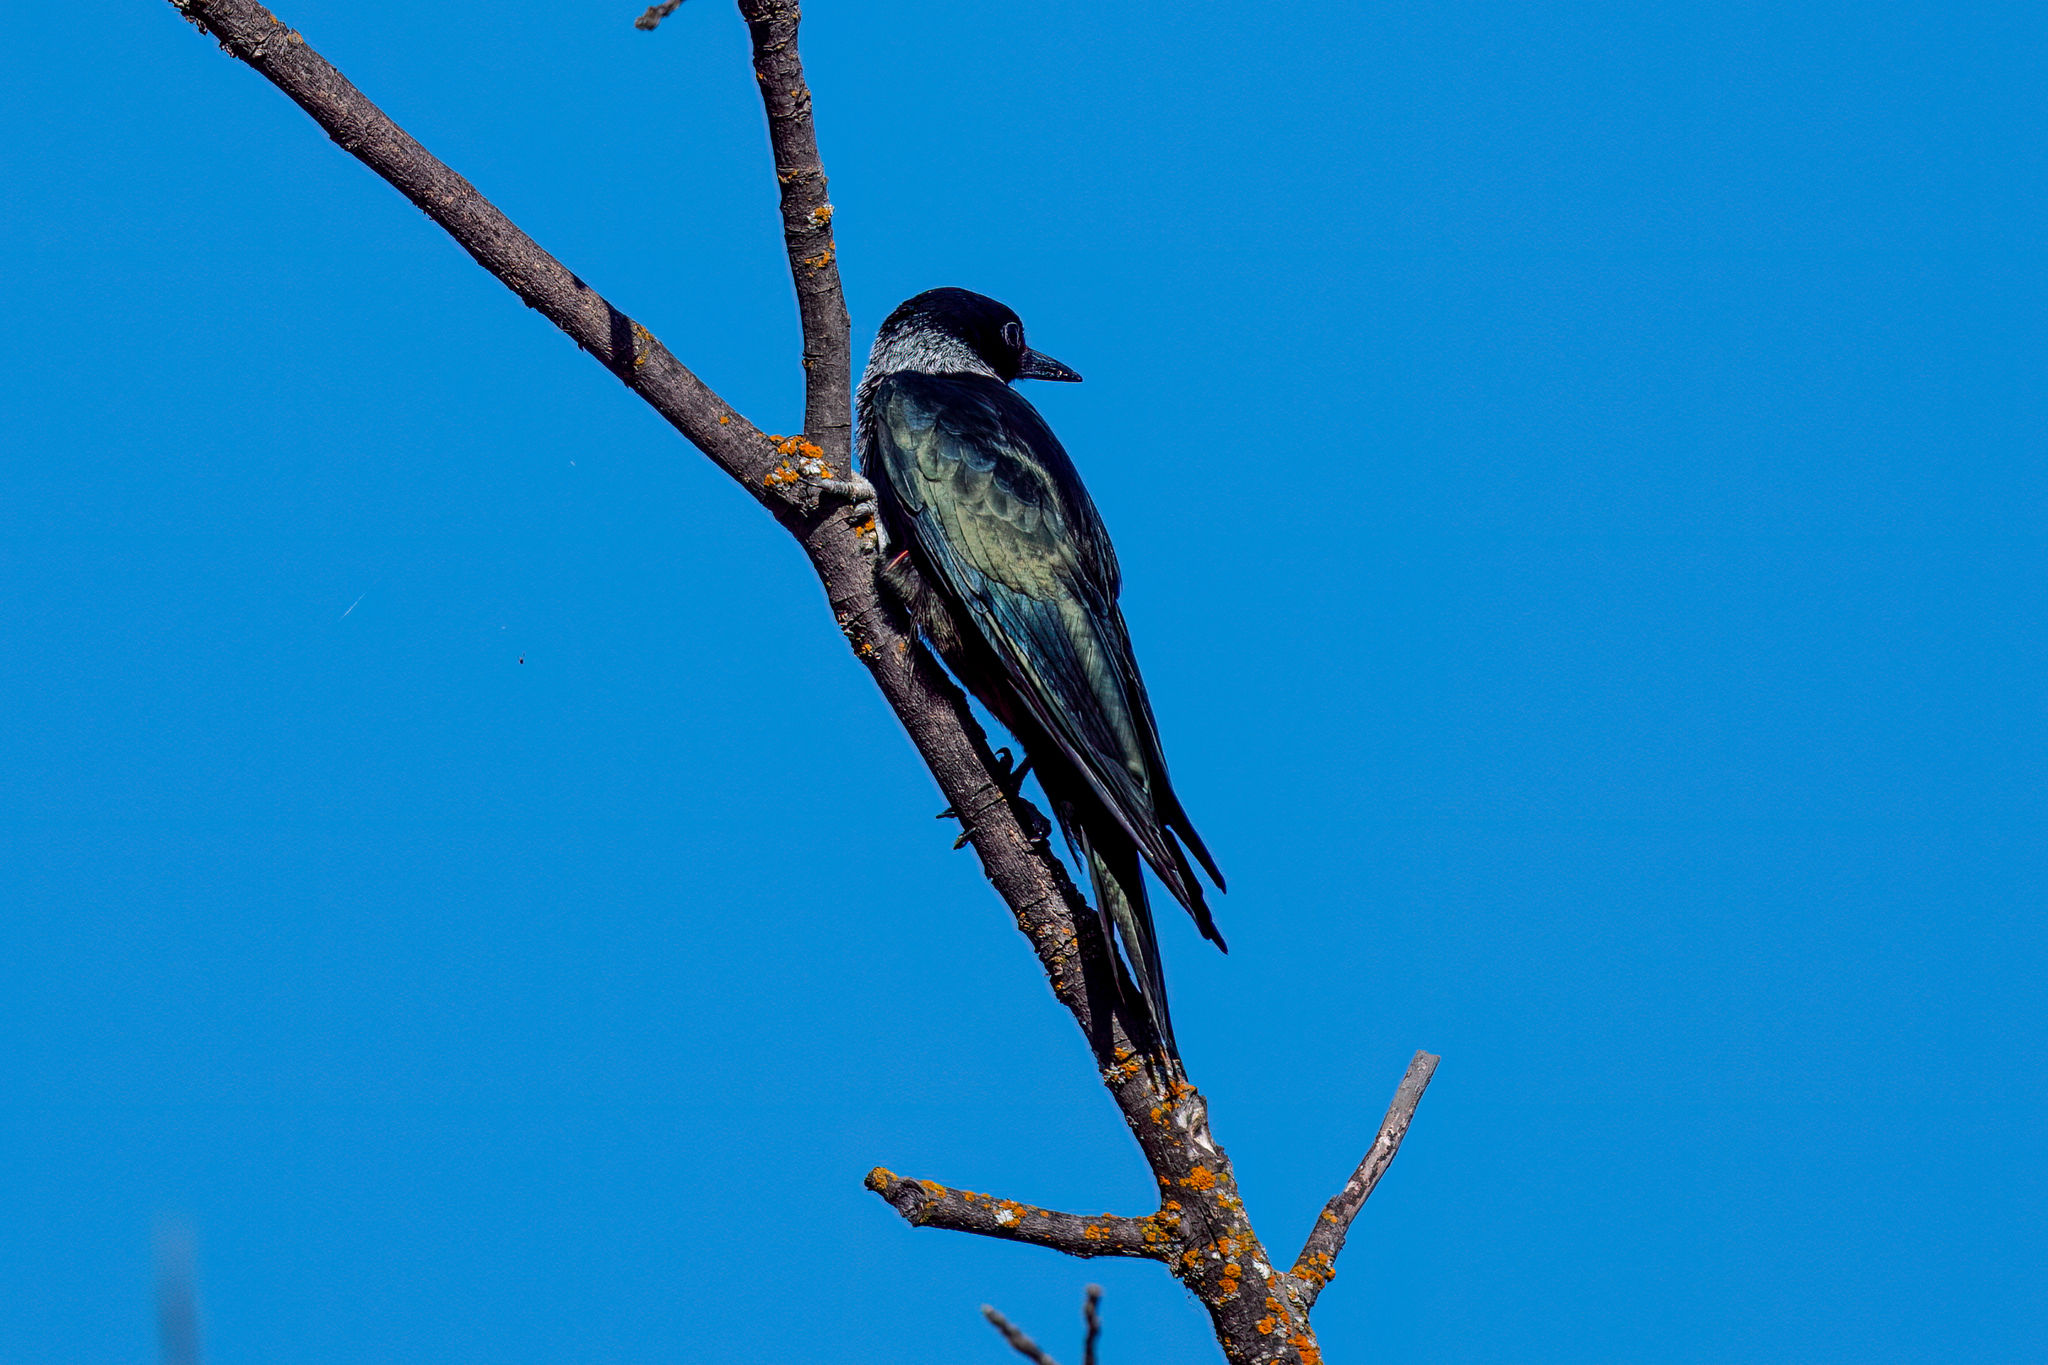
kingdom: Animalia
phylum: Chordata
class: Aves
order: Piciformes
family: Picidae
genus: Melanerpes
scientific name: Melanerpes lewis
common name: Lewis's woodpecker
